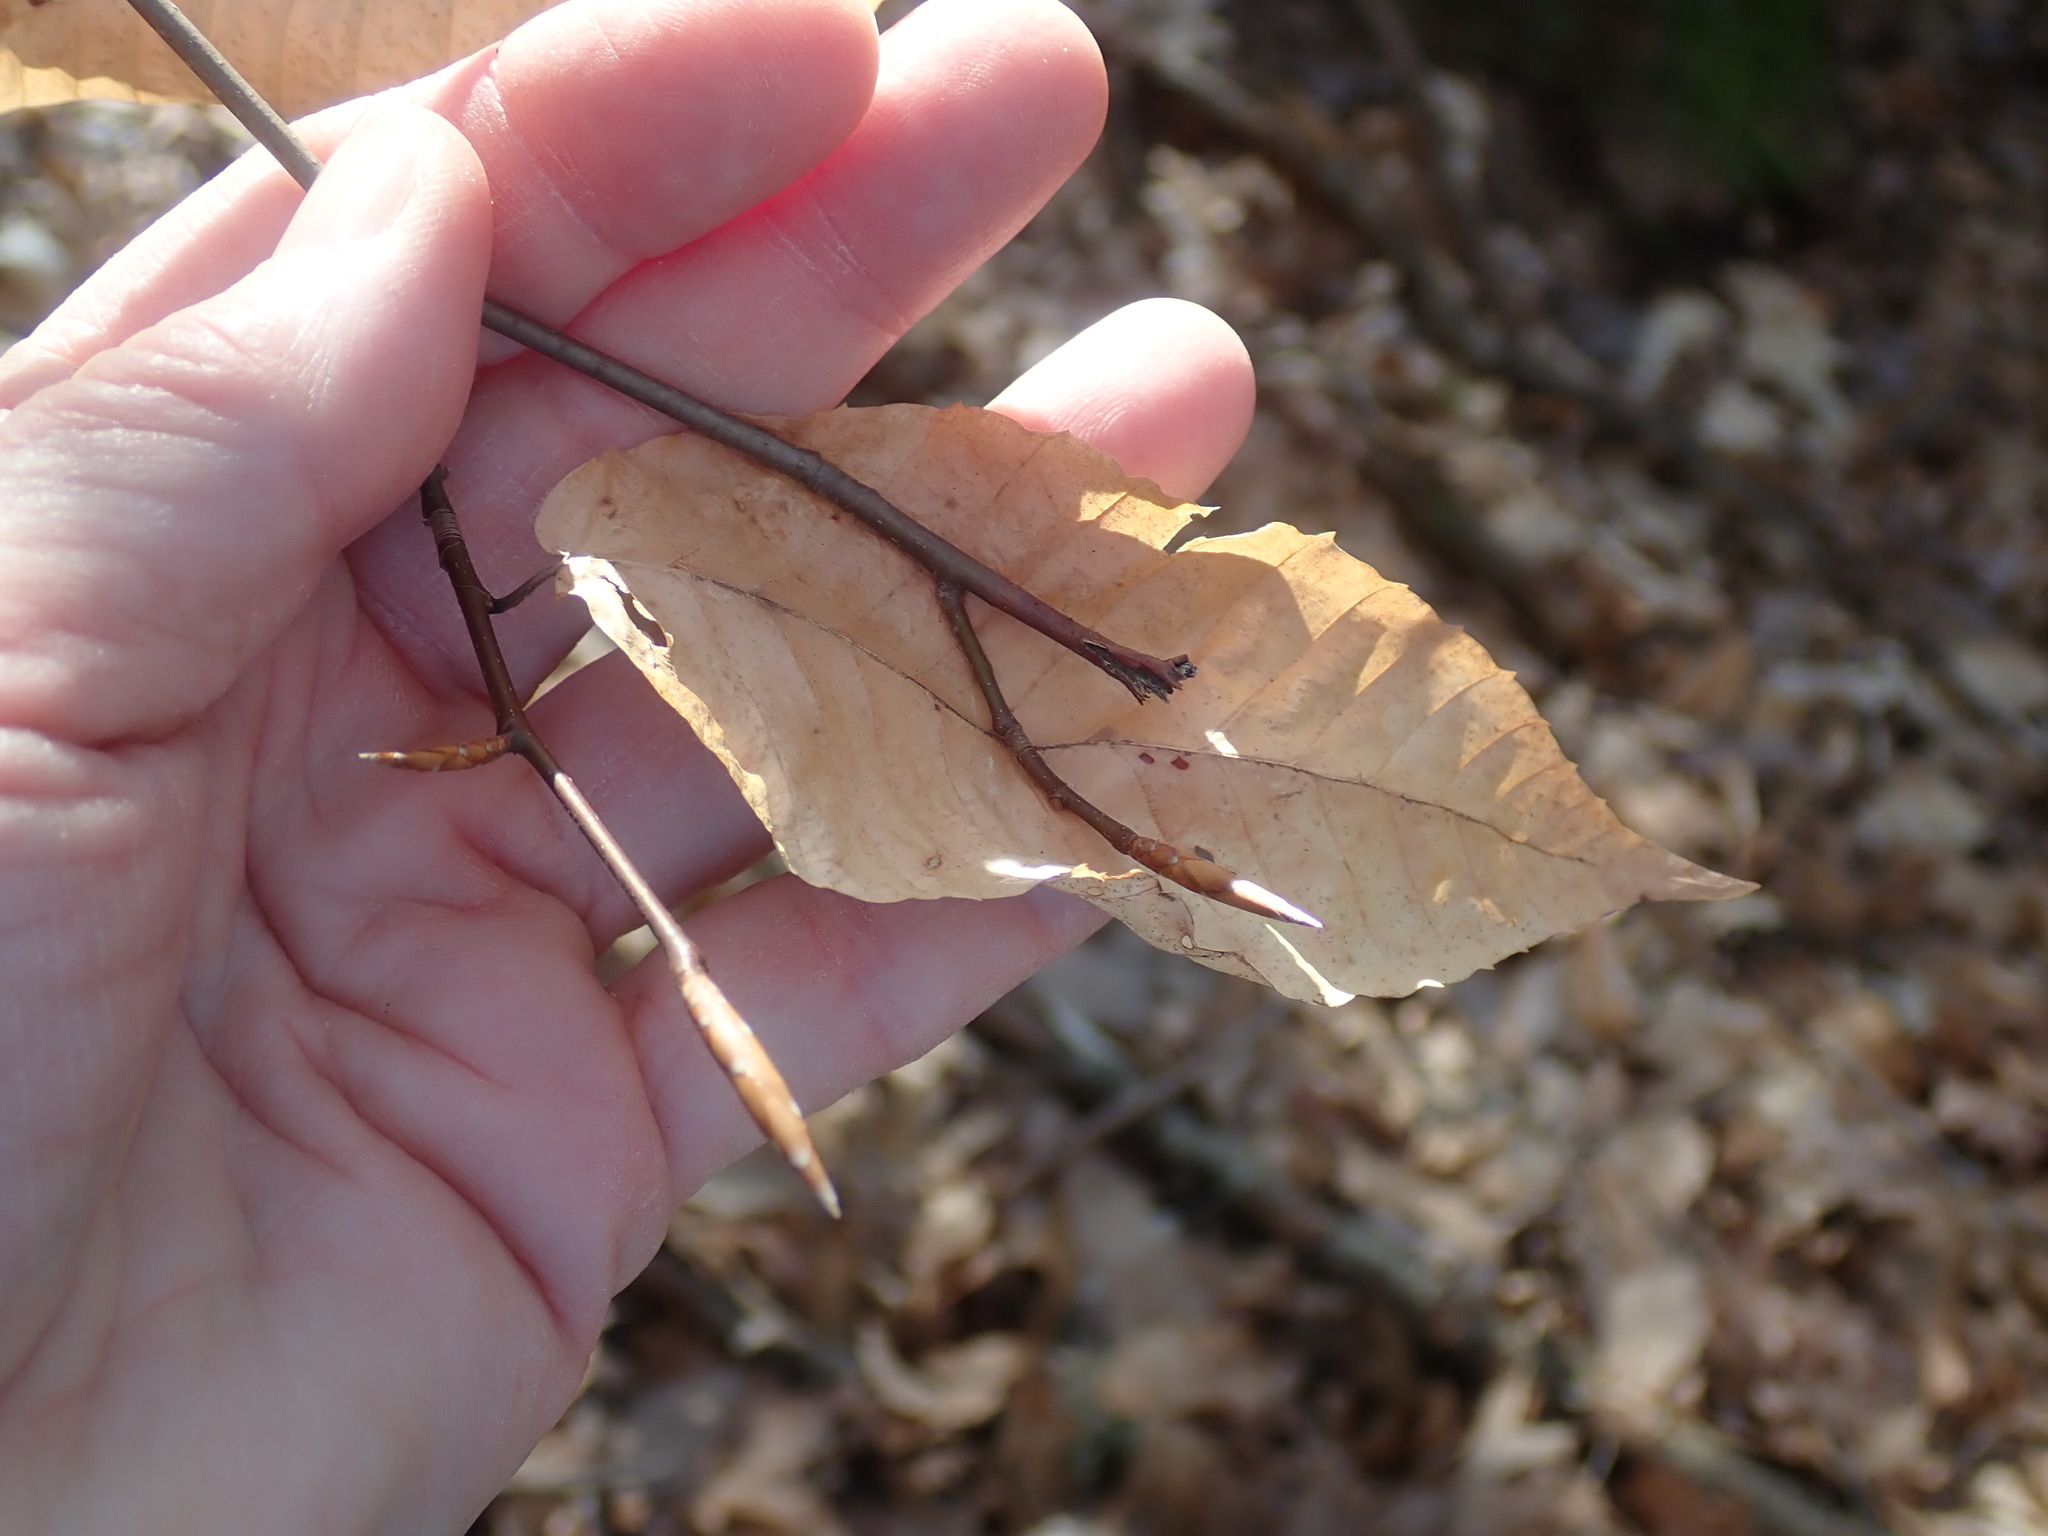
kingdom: Plantae
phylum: Tracheophyta
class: Magnoliopsida
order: Fagales
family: Fagaceae
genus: Fagus
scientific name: Fagus grandifolia
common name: American beech
